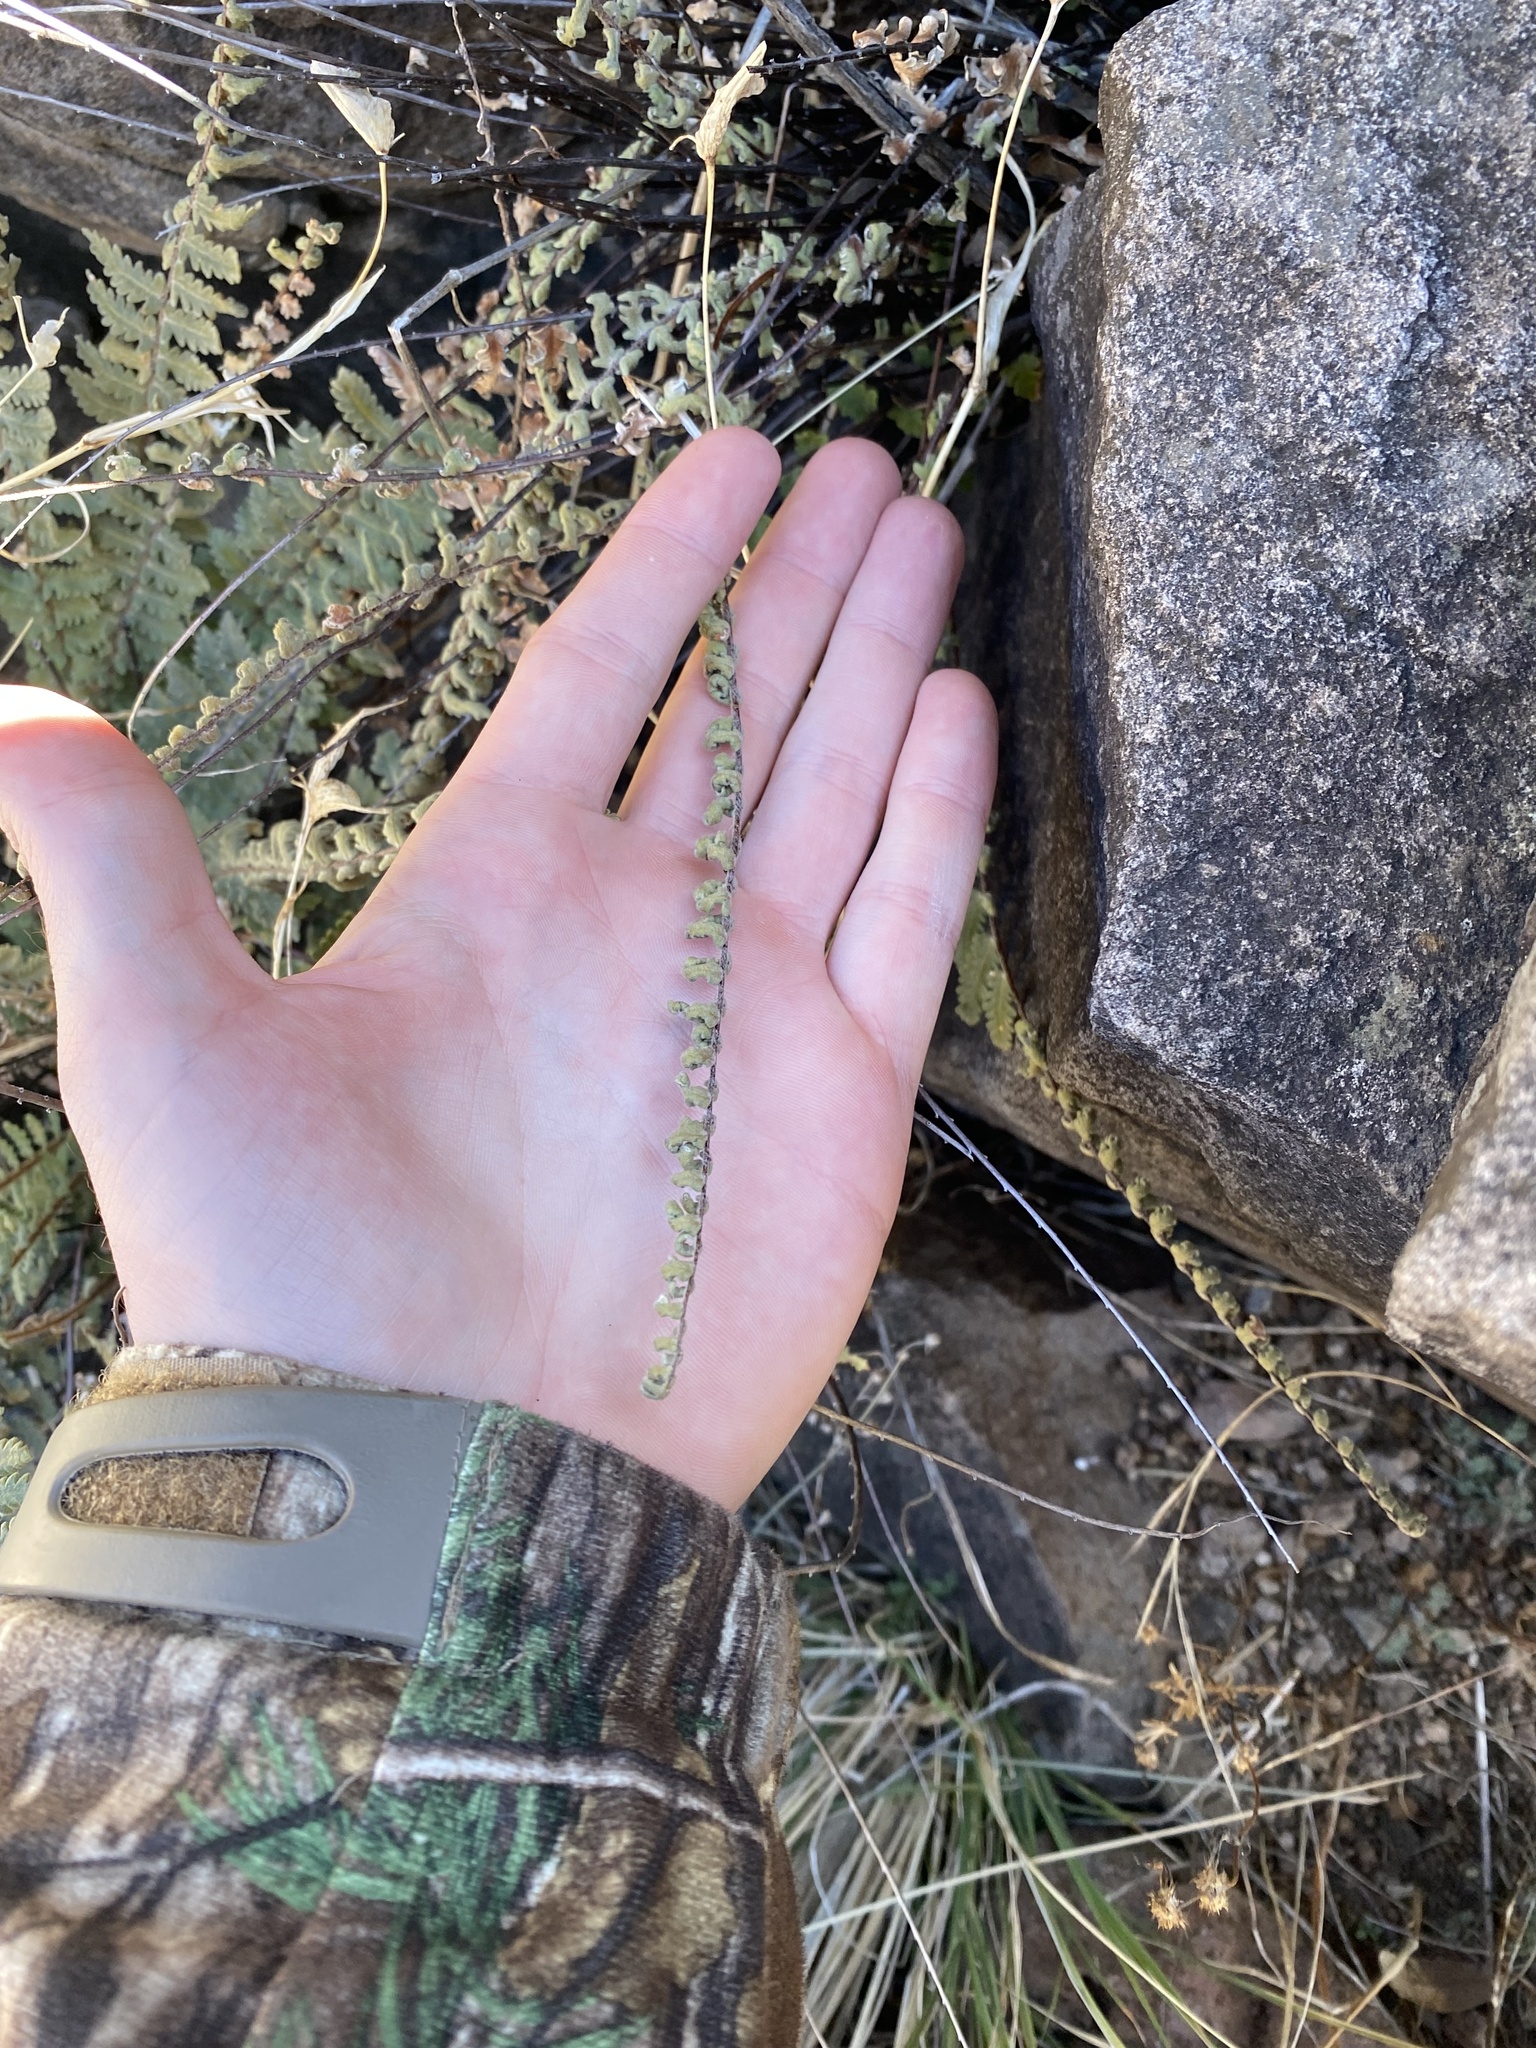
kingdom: Plantae
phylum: Tracheophyta
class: Polypodiopsida
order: Polypodiales
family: Pteridaceae
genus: Myriopteris
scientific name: Myriopteris aurea
